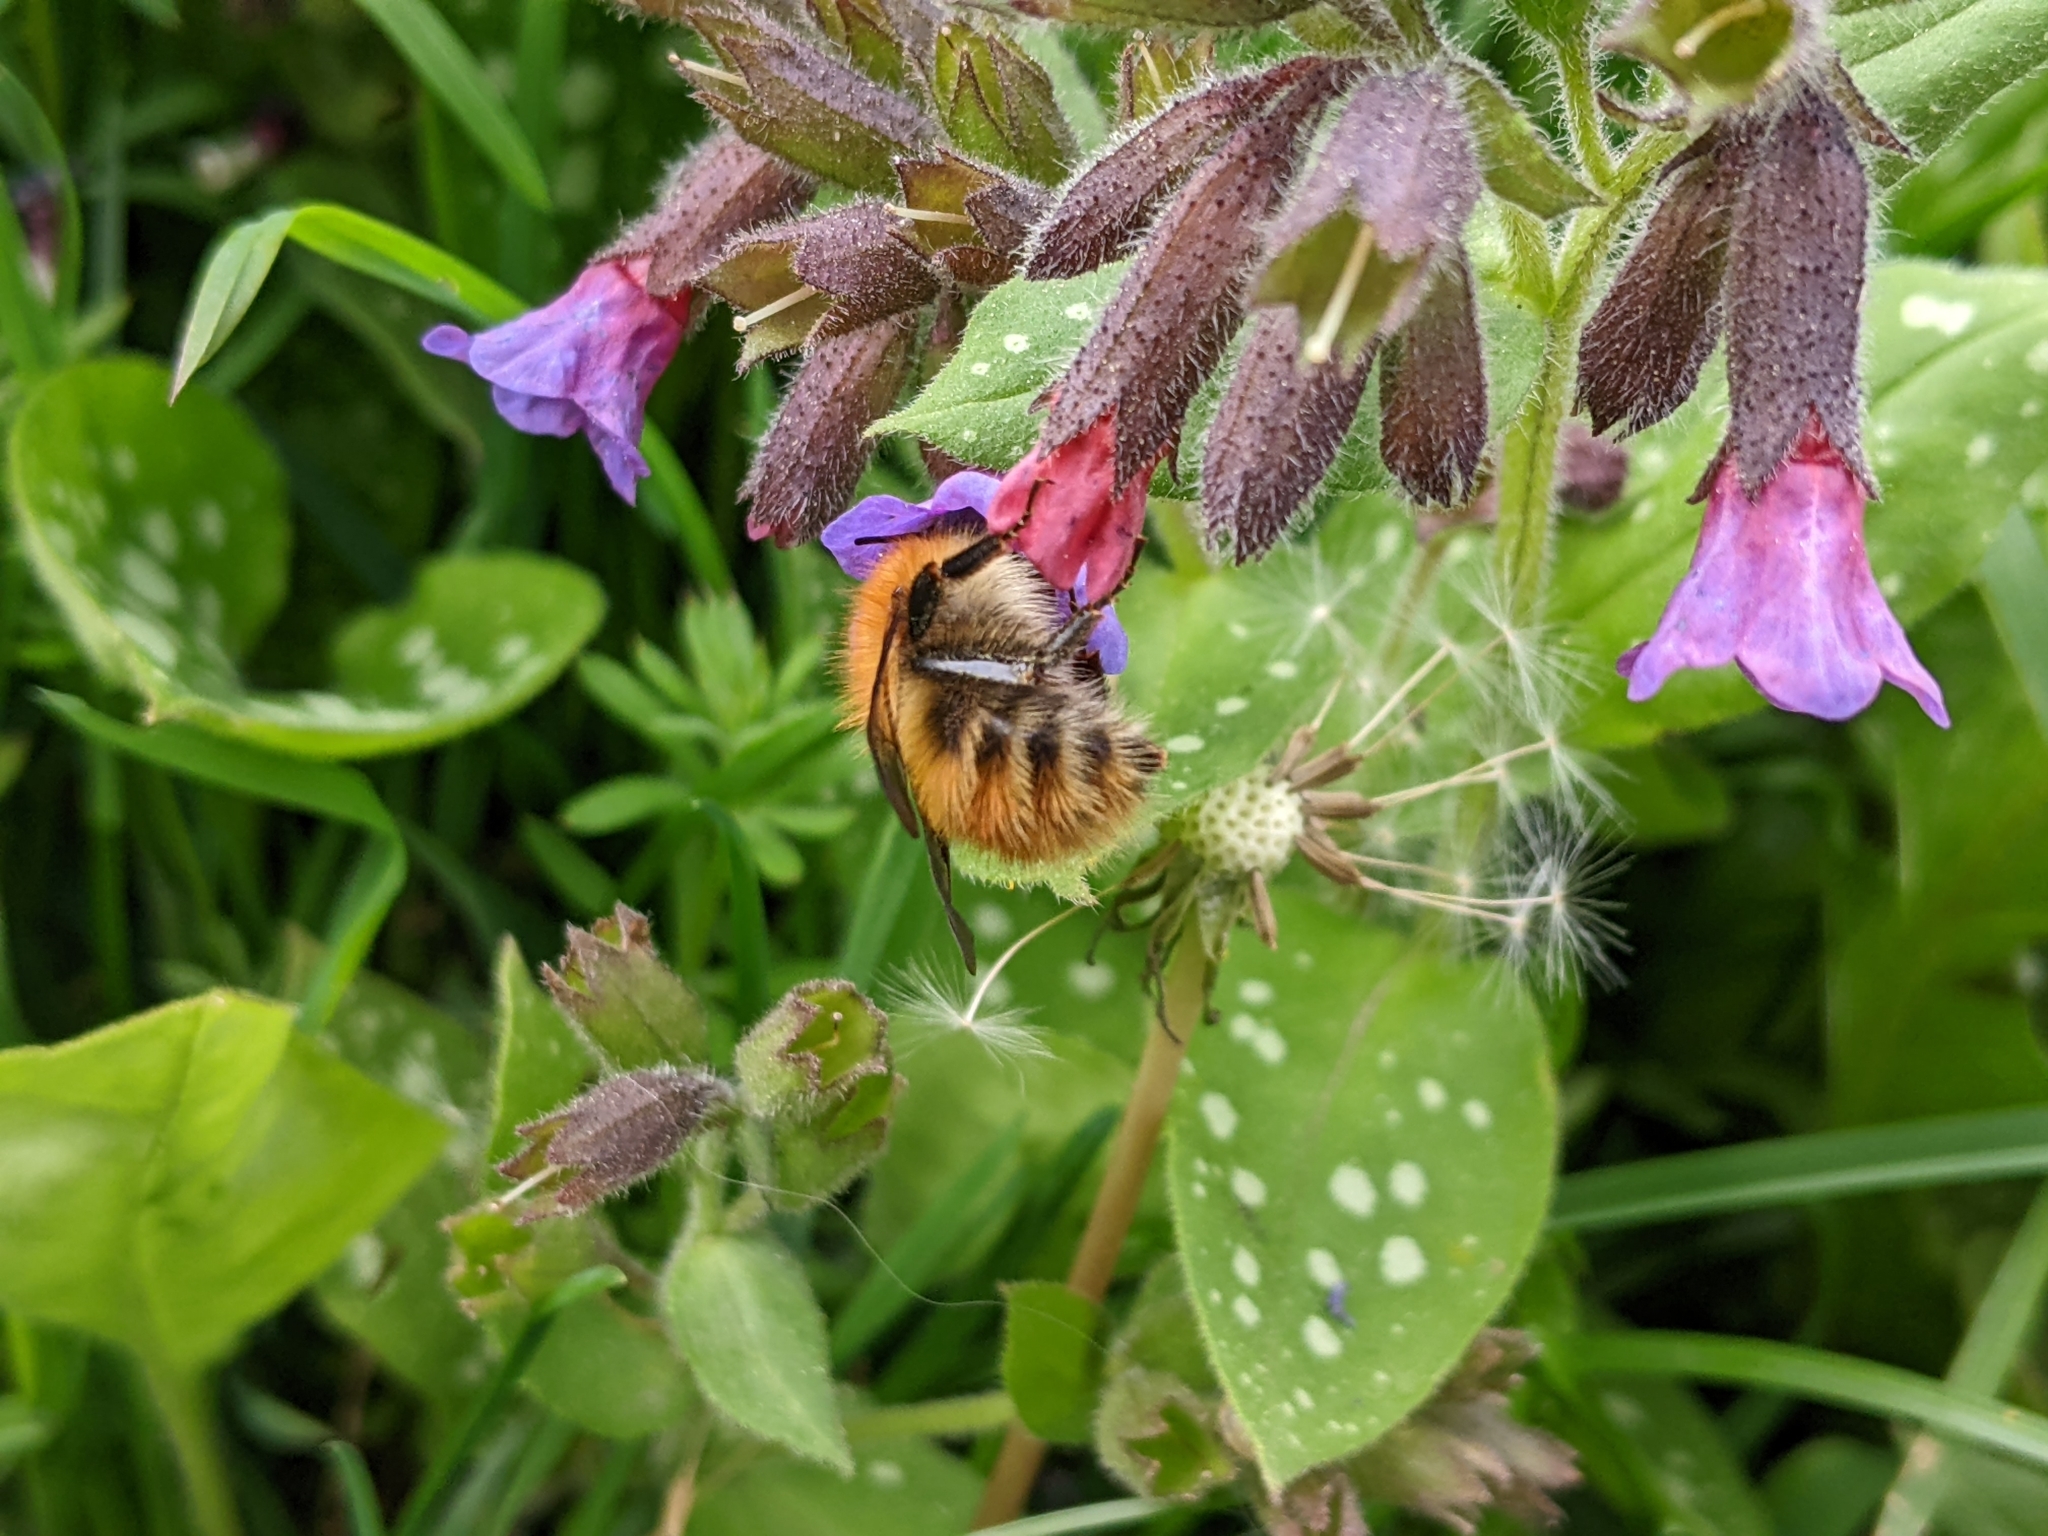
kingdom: Animalia
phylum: Arthropoda
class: Insecta
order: Hymenoptera
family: Apidae
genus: Bombus
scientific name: Bombus pascuorum
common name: Common carder bee
